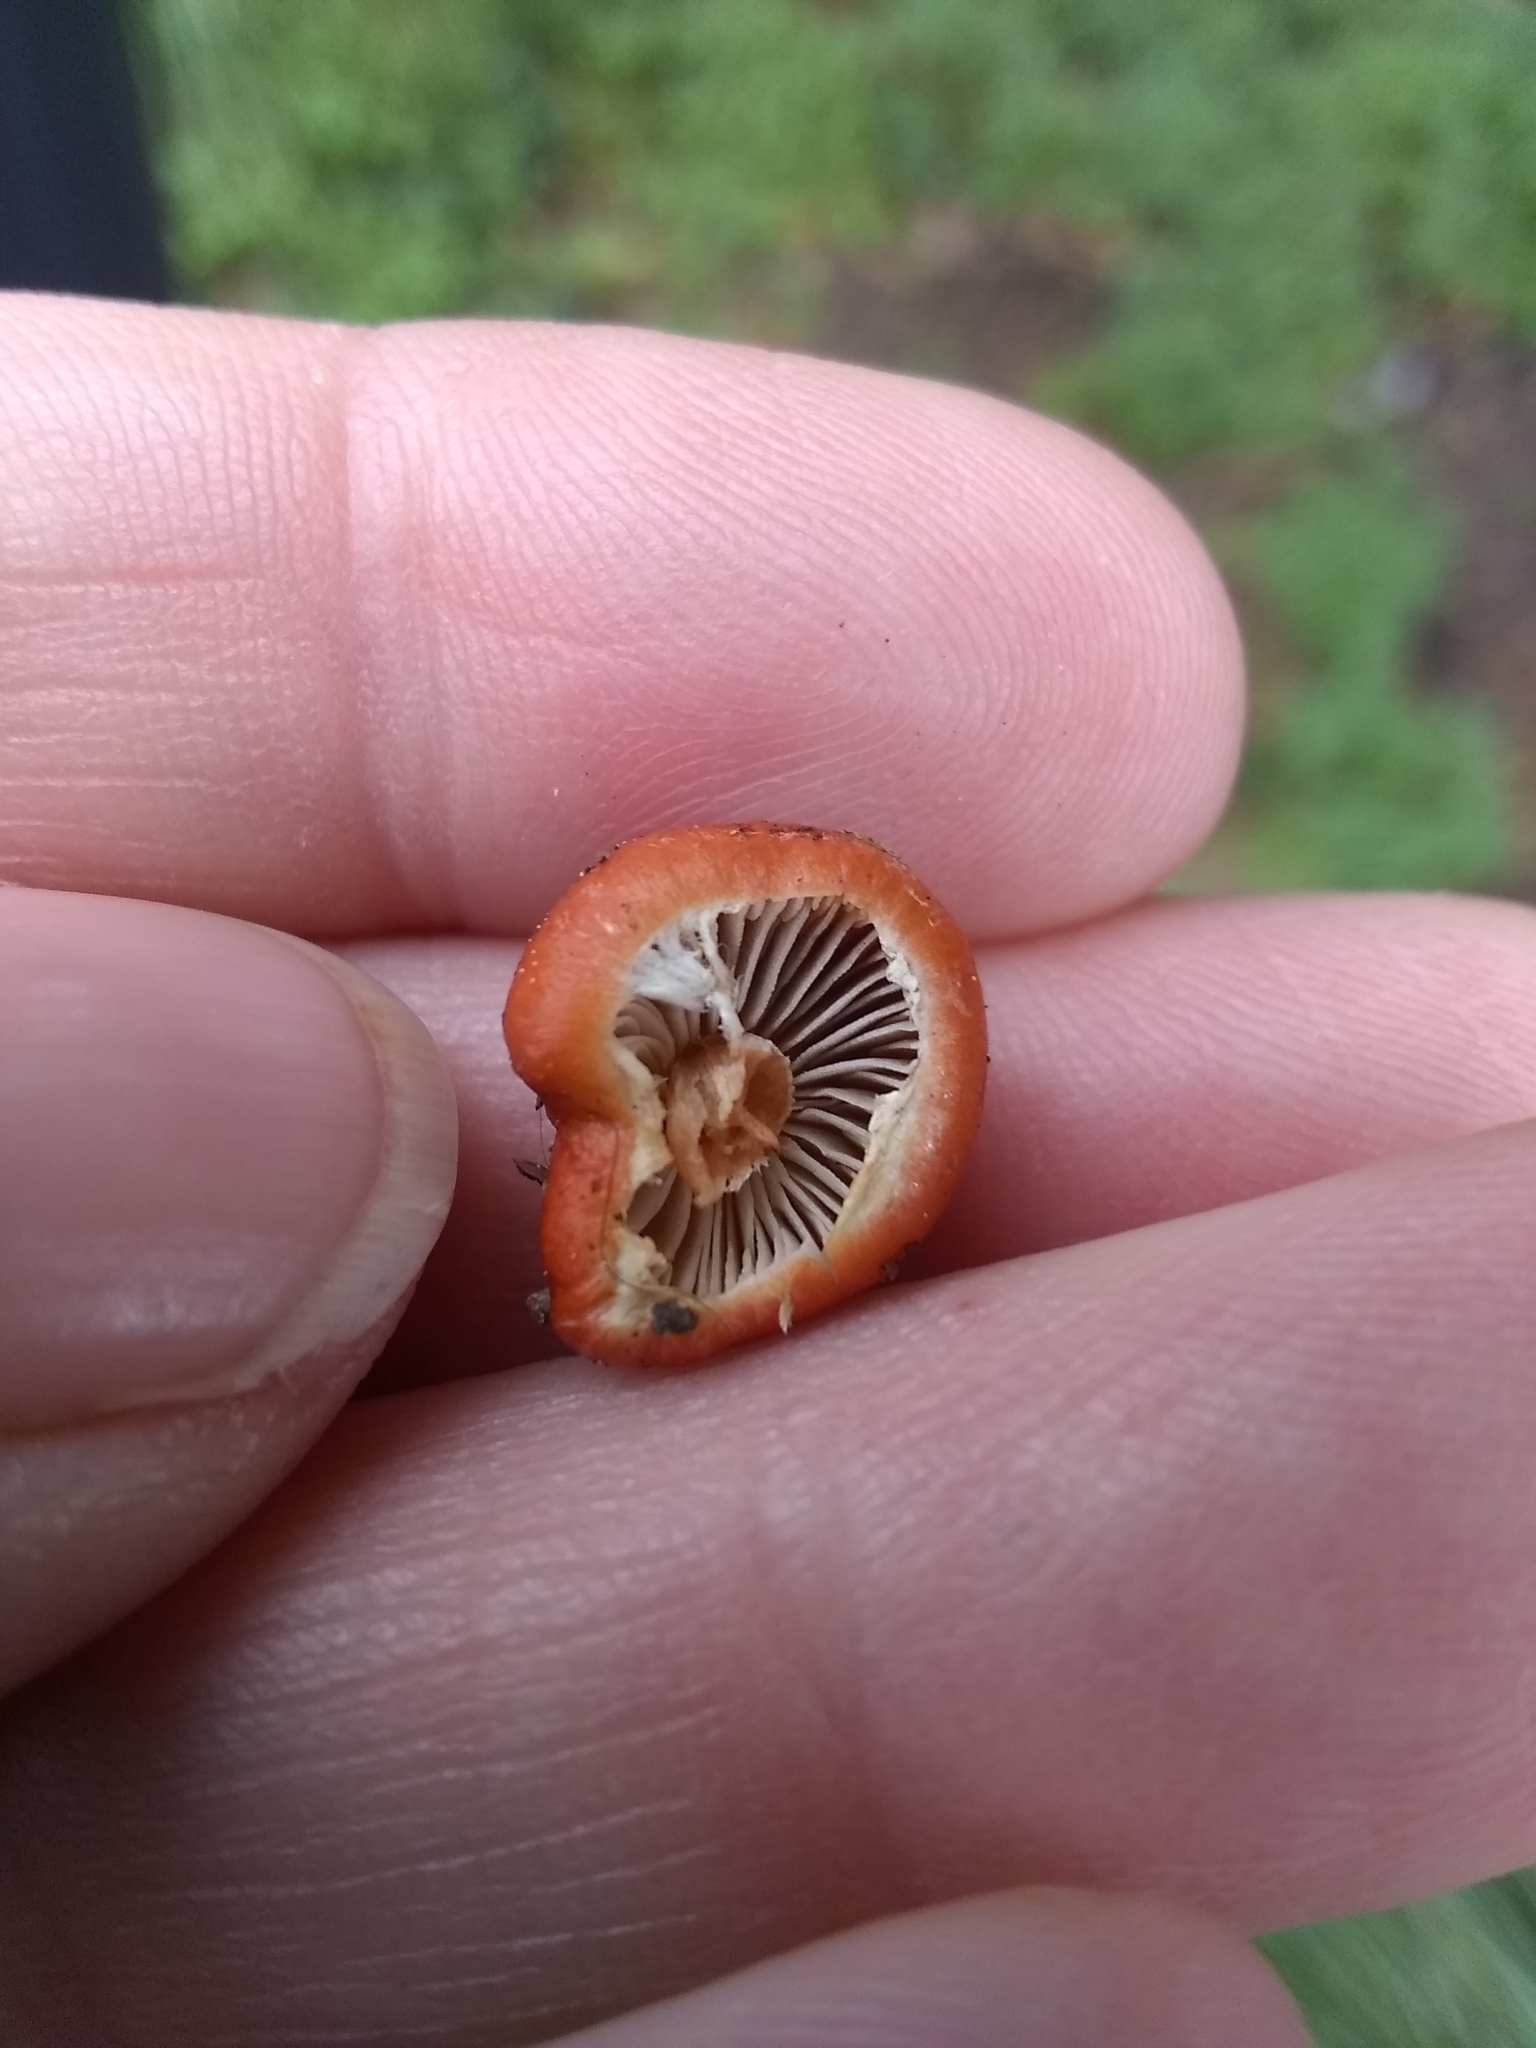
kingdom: Fungi
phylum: Basidiomycota
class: Agaricomycetes
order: Agaricales
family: Strophariaceae
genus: Leratiomyces
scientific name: Leratiomyces ceres
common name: Redlead roundhead
